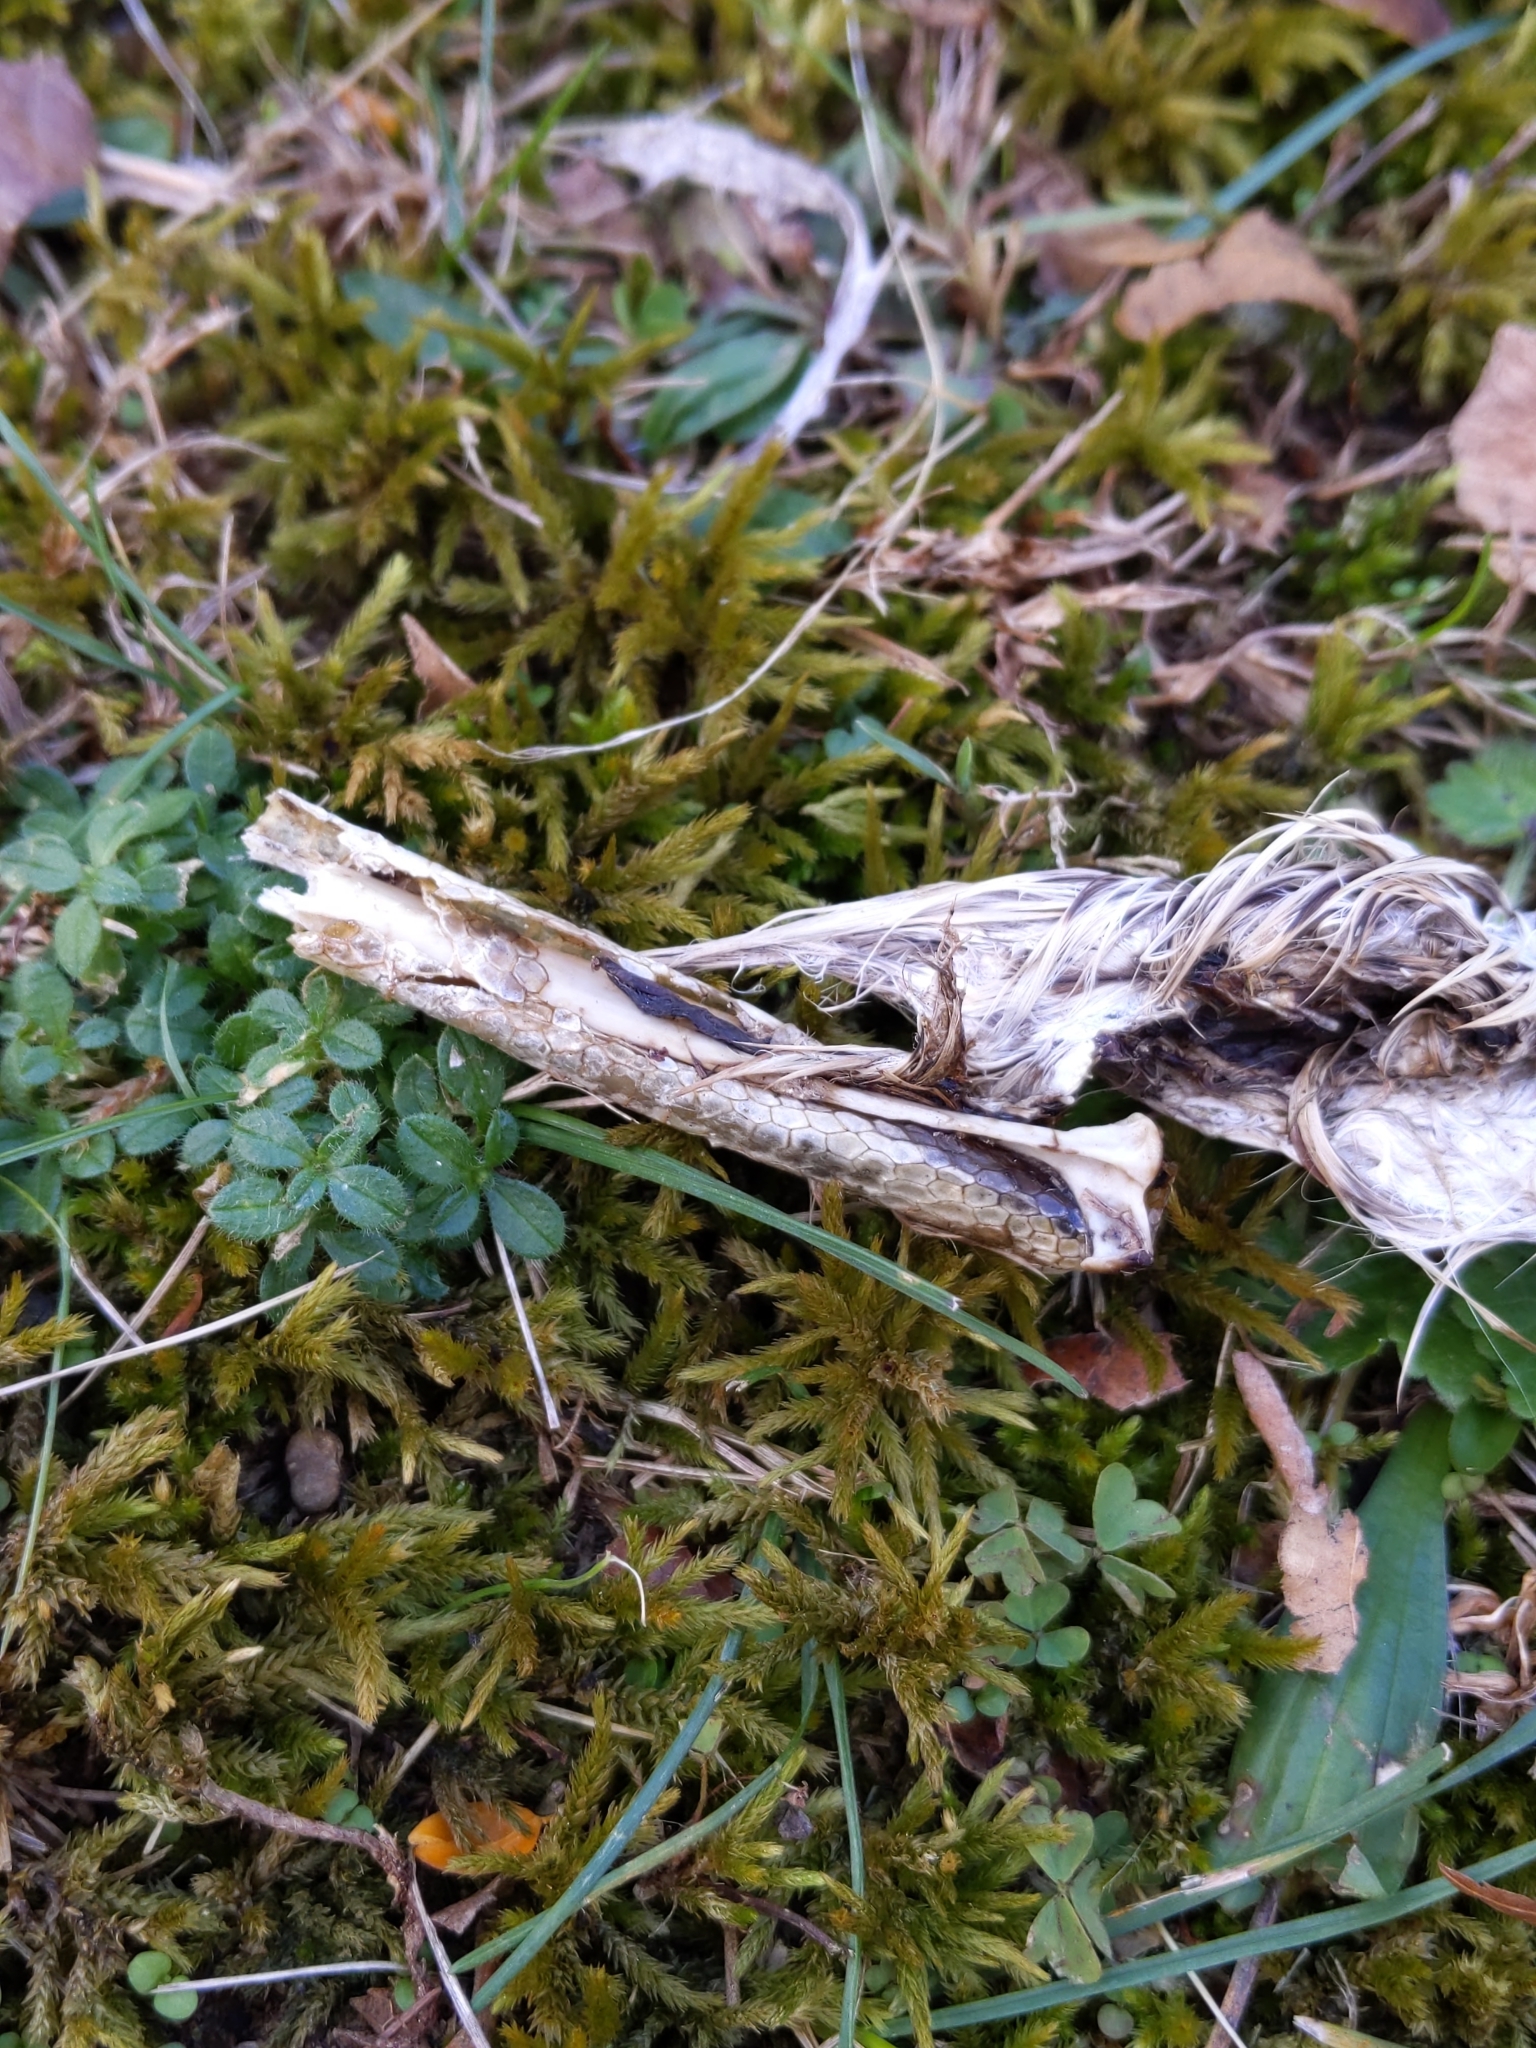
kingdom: Animalia
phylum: Chordata
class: Aves
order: Accipitriformes
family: Accipitridae
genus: Accipiter
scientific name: Accipiter cooperii
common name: Cooper's hawk
